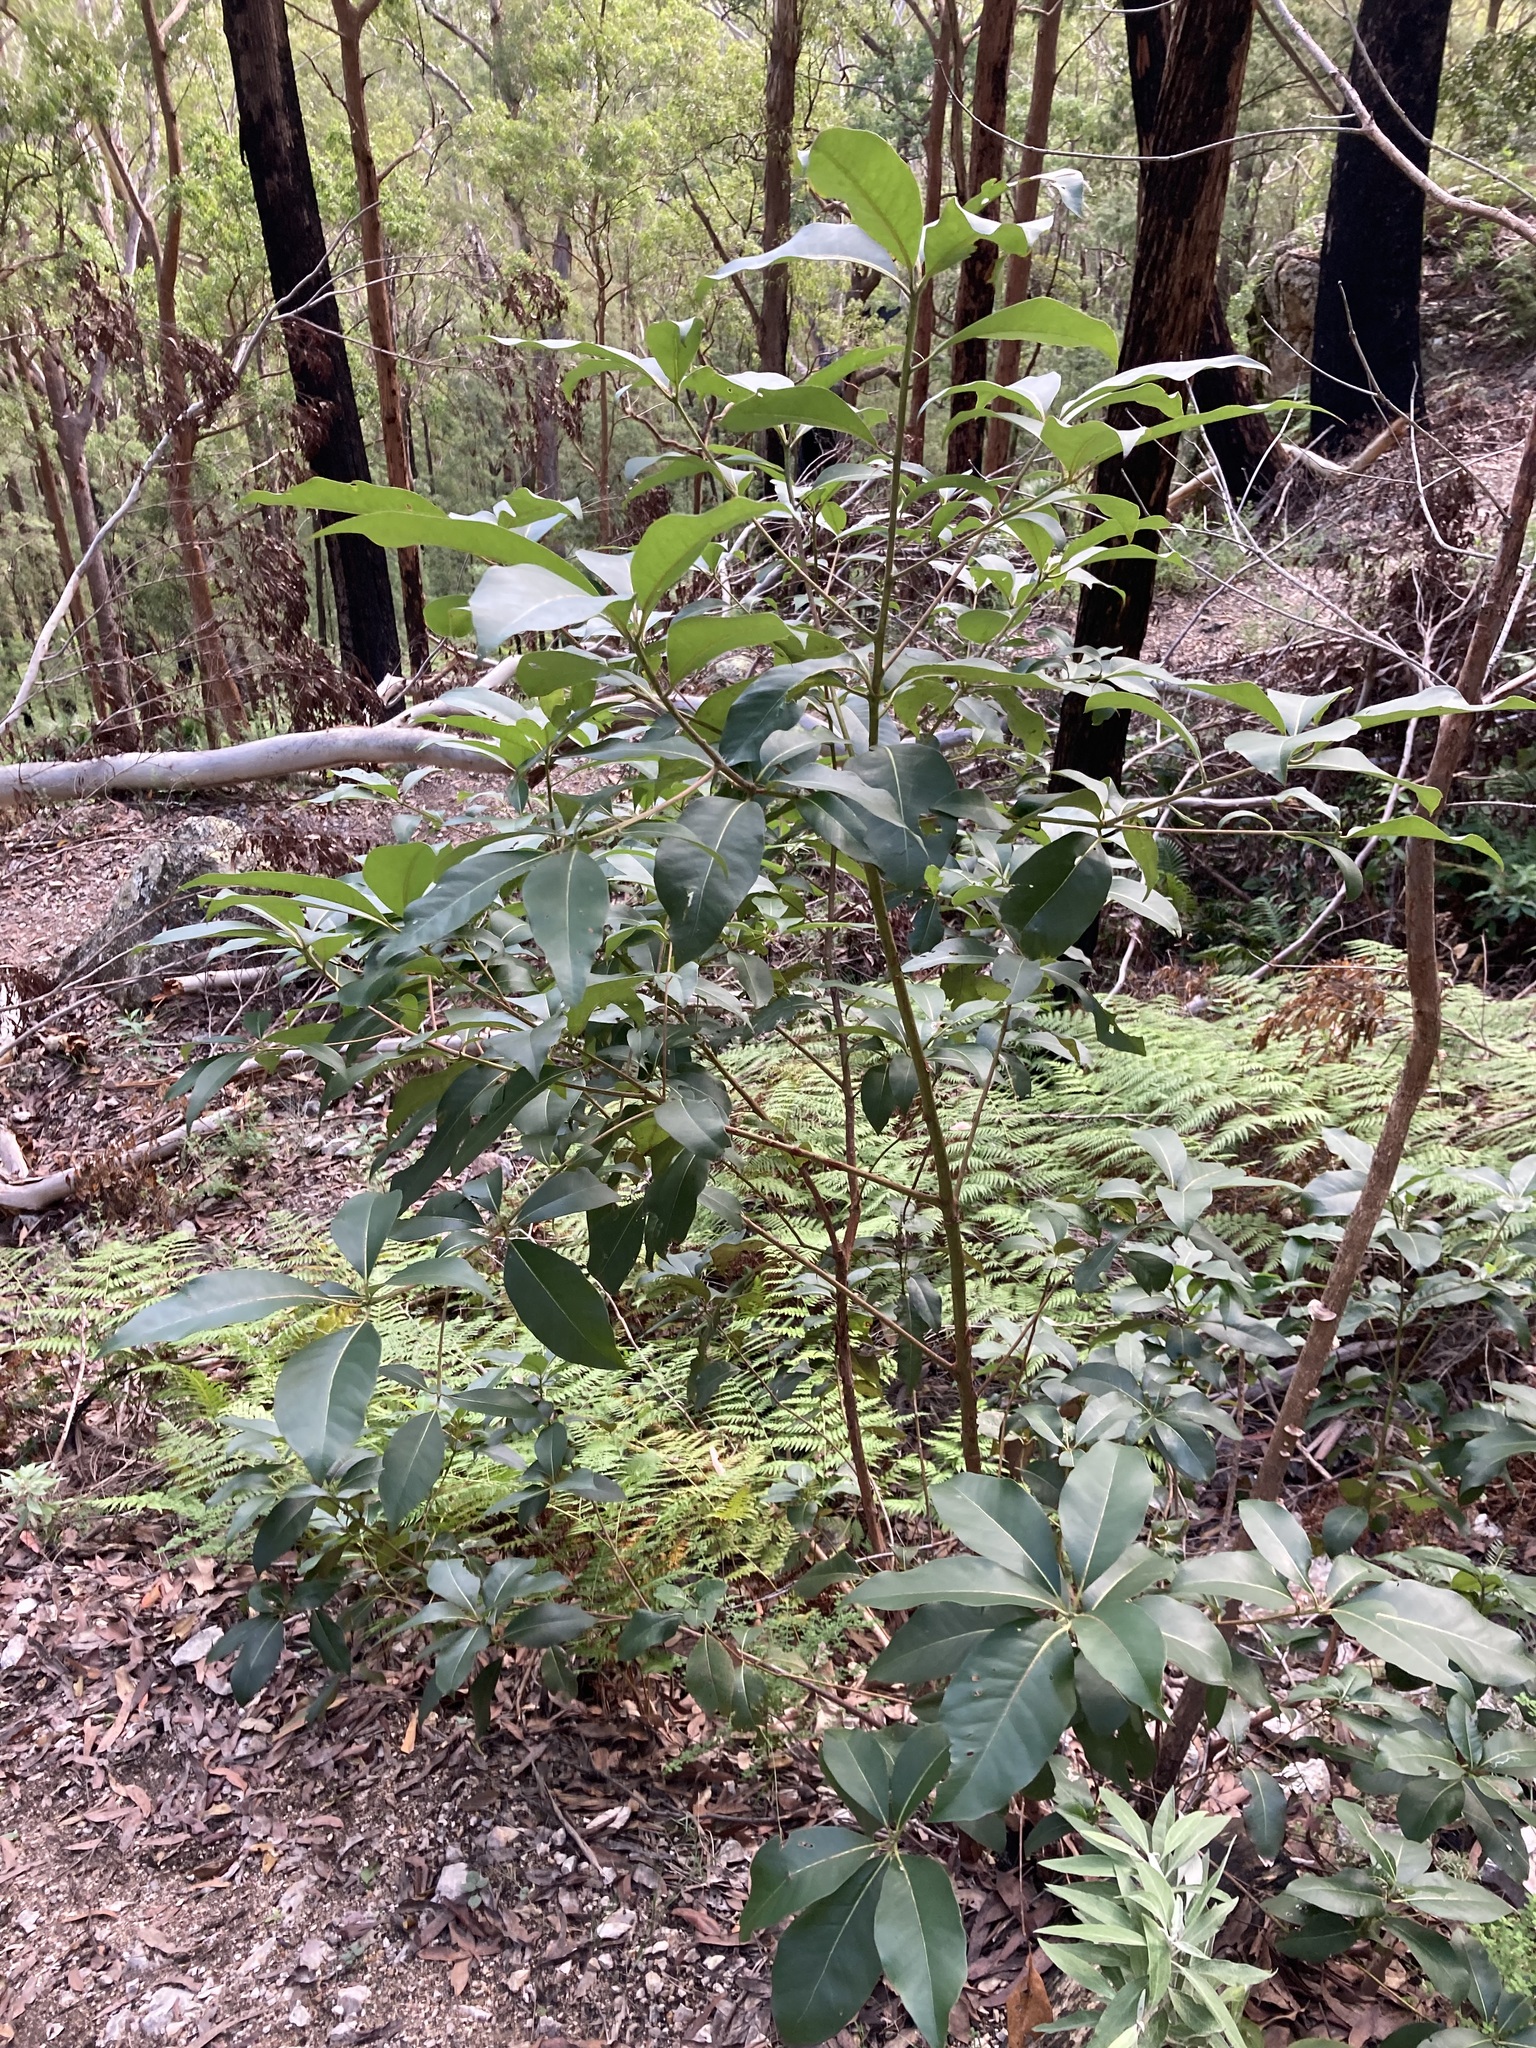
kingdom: Plantae
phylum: Tracheophyta
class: Magnoliopsida
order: Myrtales
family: Myrtaceae
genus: Lophostemon
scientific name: Lophostemon confertus
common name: Brisbane box
